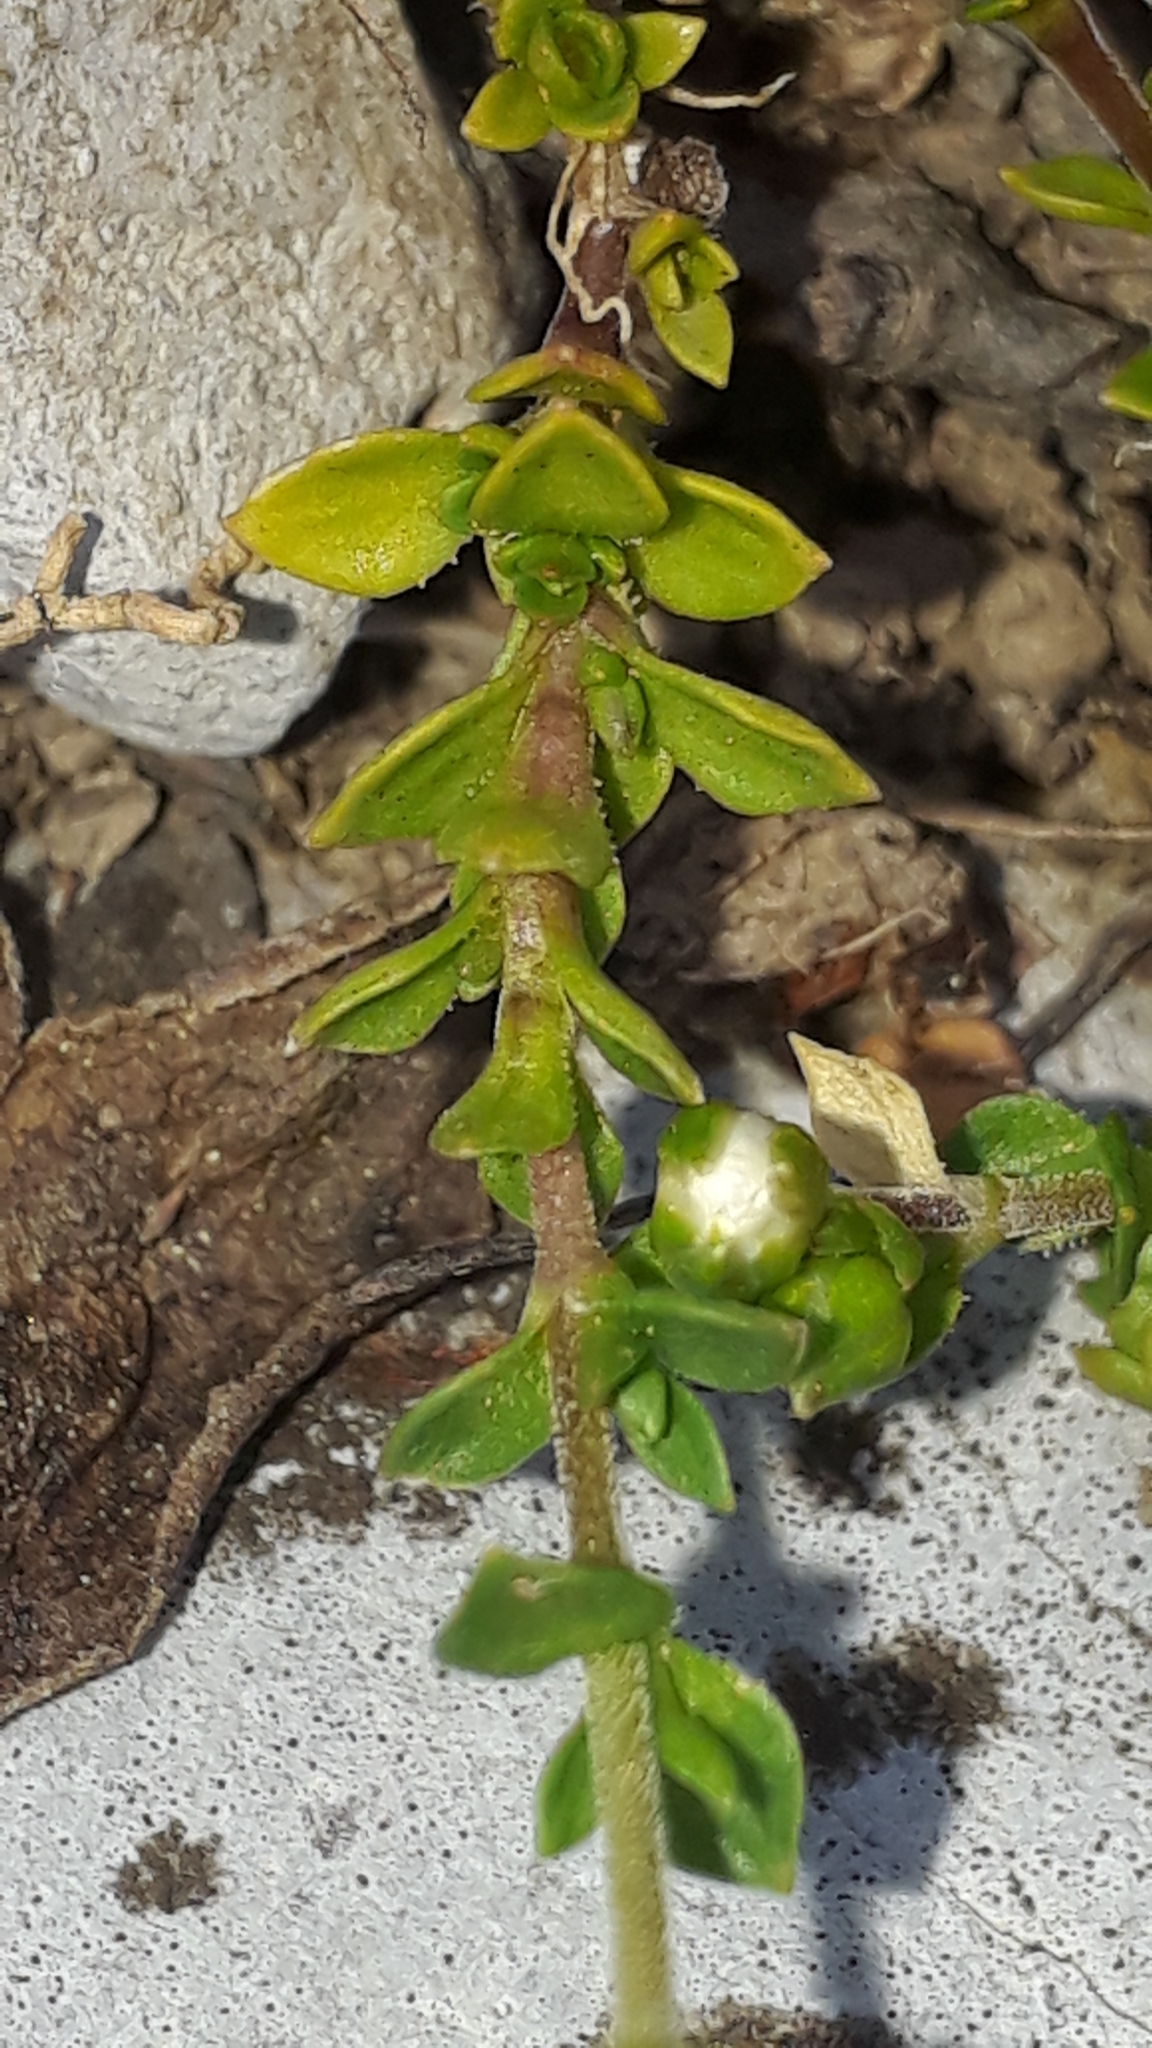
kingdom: Plantae
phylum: Tracheophyta
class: Magnoliopsida
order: Caryophyllales
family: Caryophyllaceae
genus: Arenaria
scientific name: Arenaria ciliata
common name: Fringed sandwort
